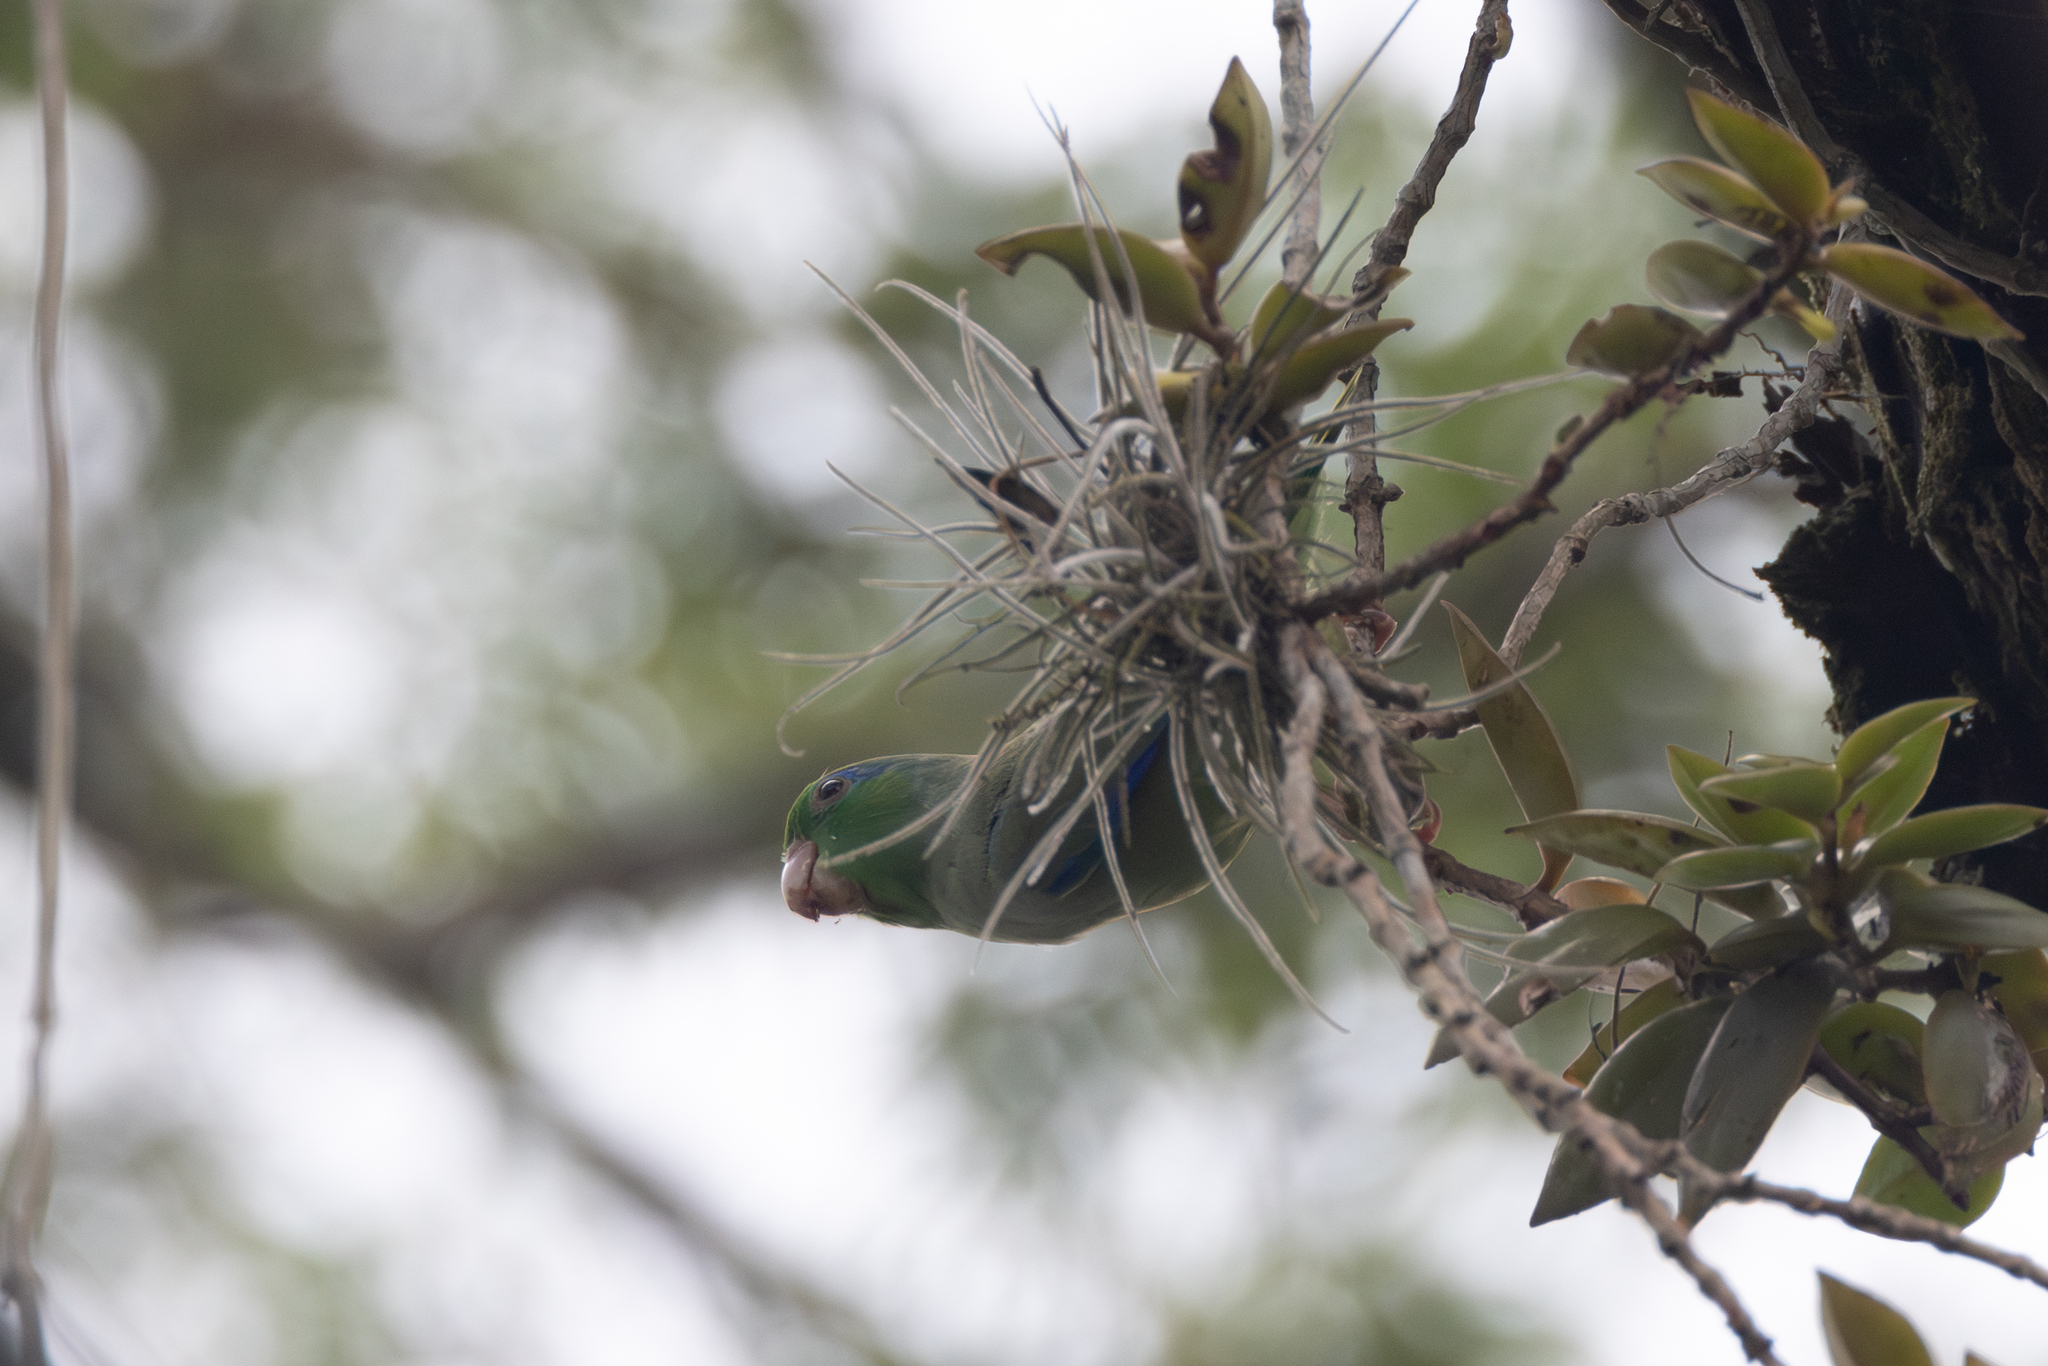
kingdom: Animalia
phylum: Chordata
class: Aves
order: Psittaciformes
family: Psittacidae
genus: Forpus
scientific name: Forpus conspicillatus
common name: Spectacled parrotlet
